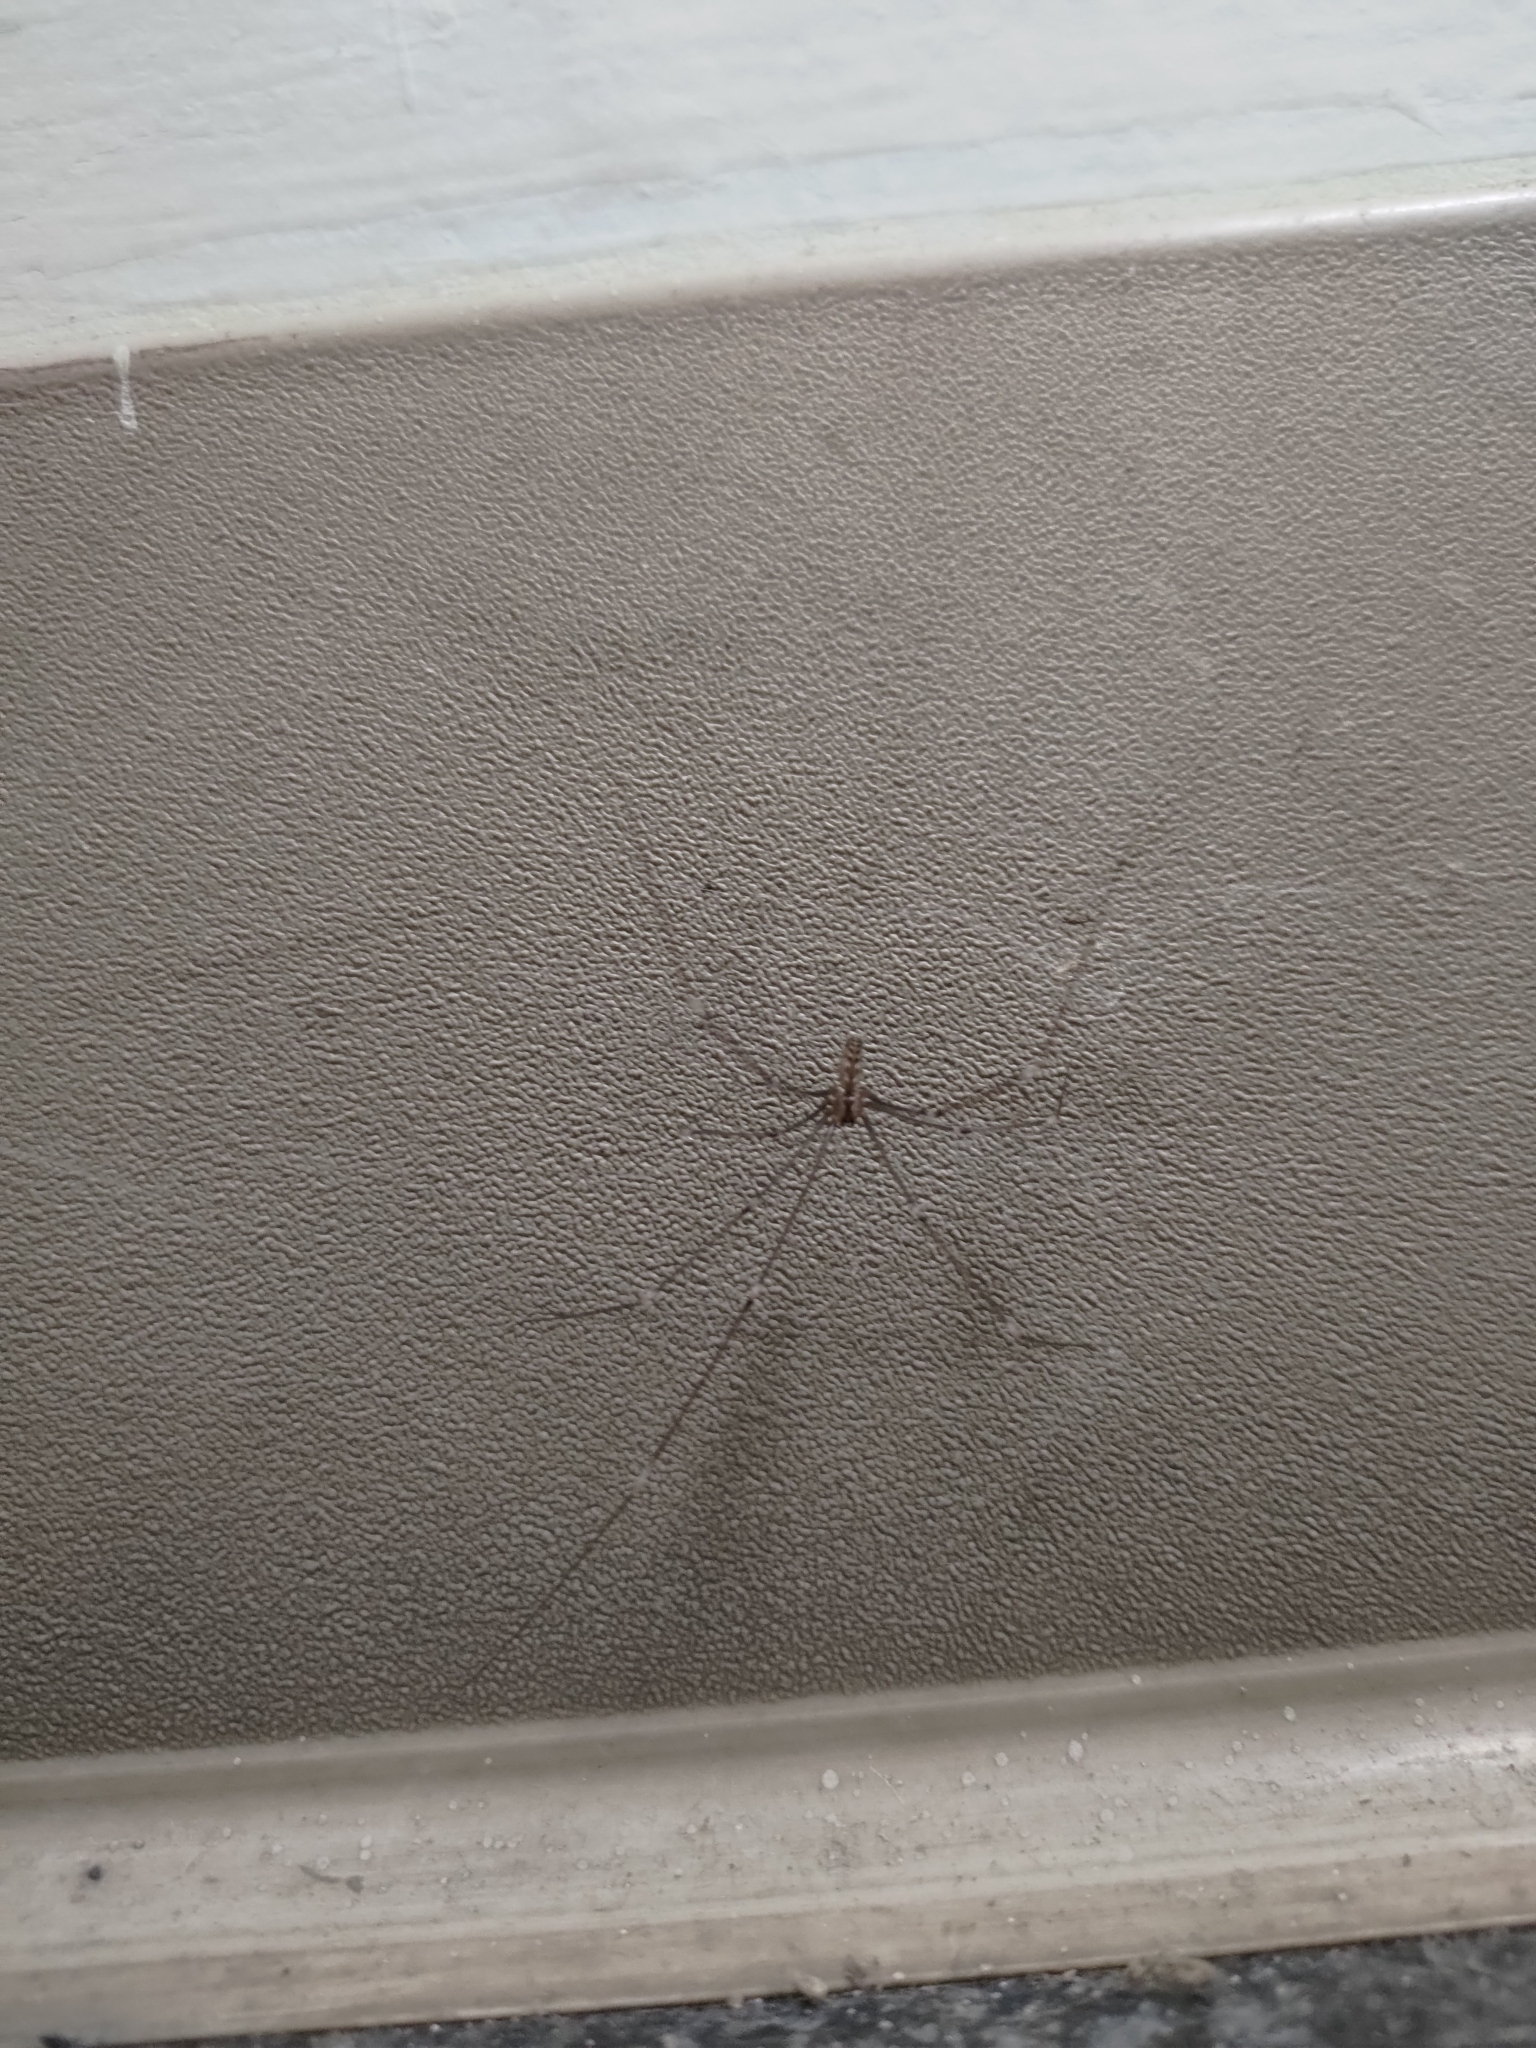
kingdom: Animalia
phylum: Arthropoda
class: Arachnida
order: Araneae
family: Pholcidae
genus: Smeringopus
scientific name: Smeringopus pallidus
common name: Cellar spider
